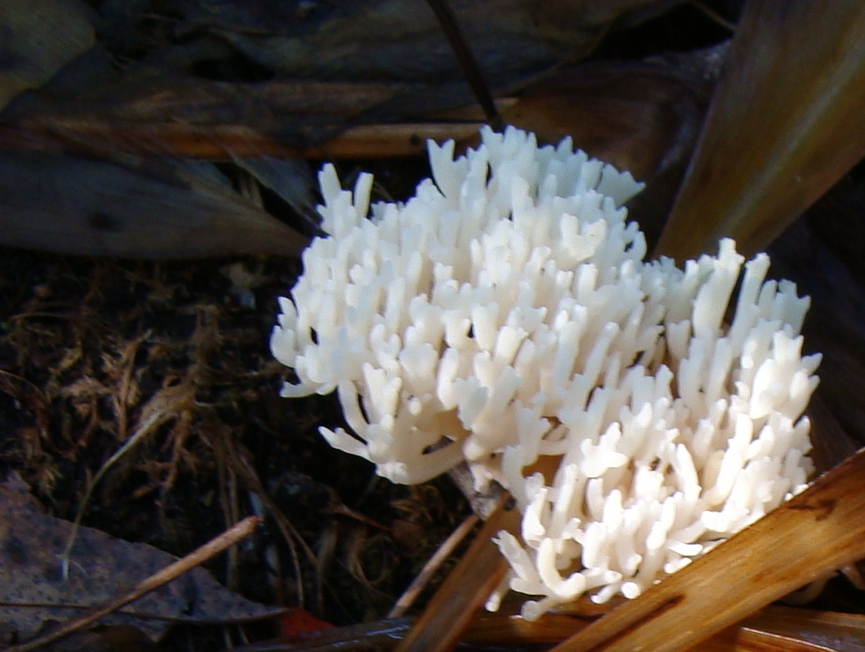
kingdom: Fungi
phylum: Basidiomycota
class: Agaricomycetes
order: Agaricales
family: Clavariaceae
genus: Ramariopsis
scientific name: Ramariopsis kunzei
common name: Ivory coral
